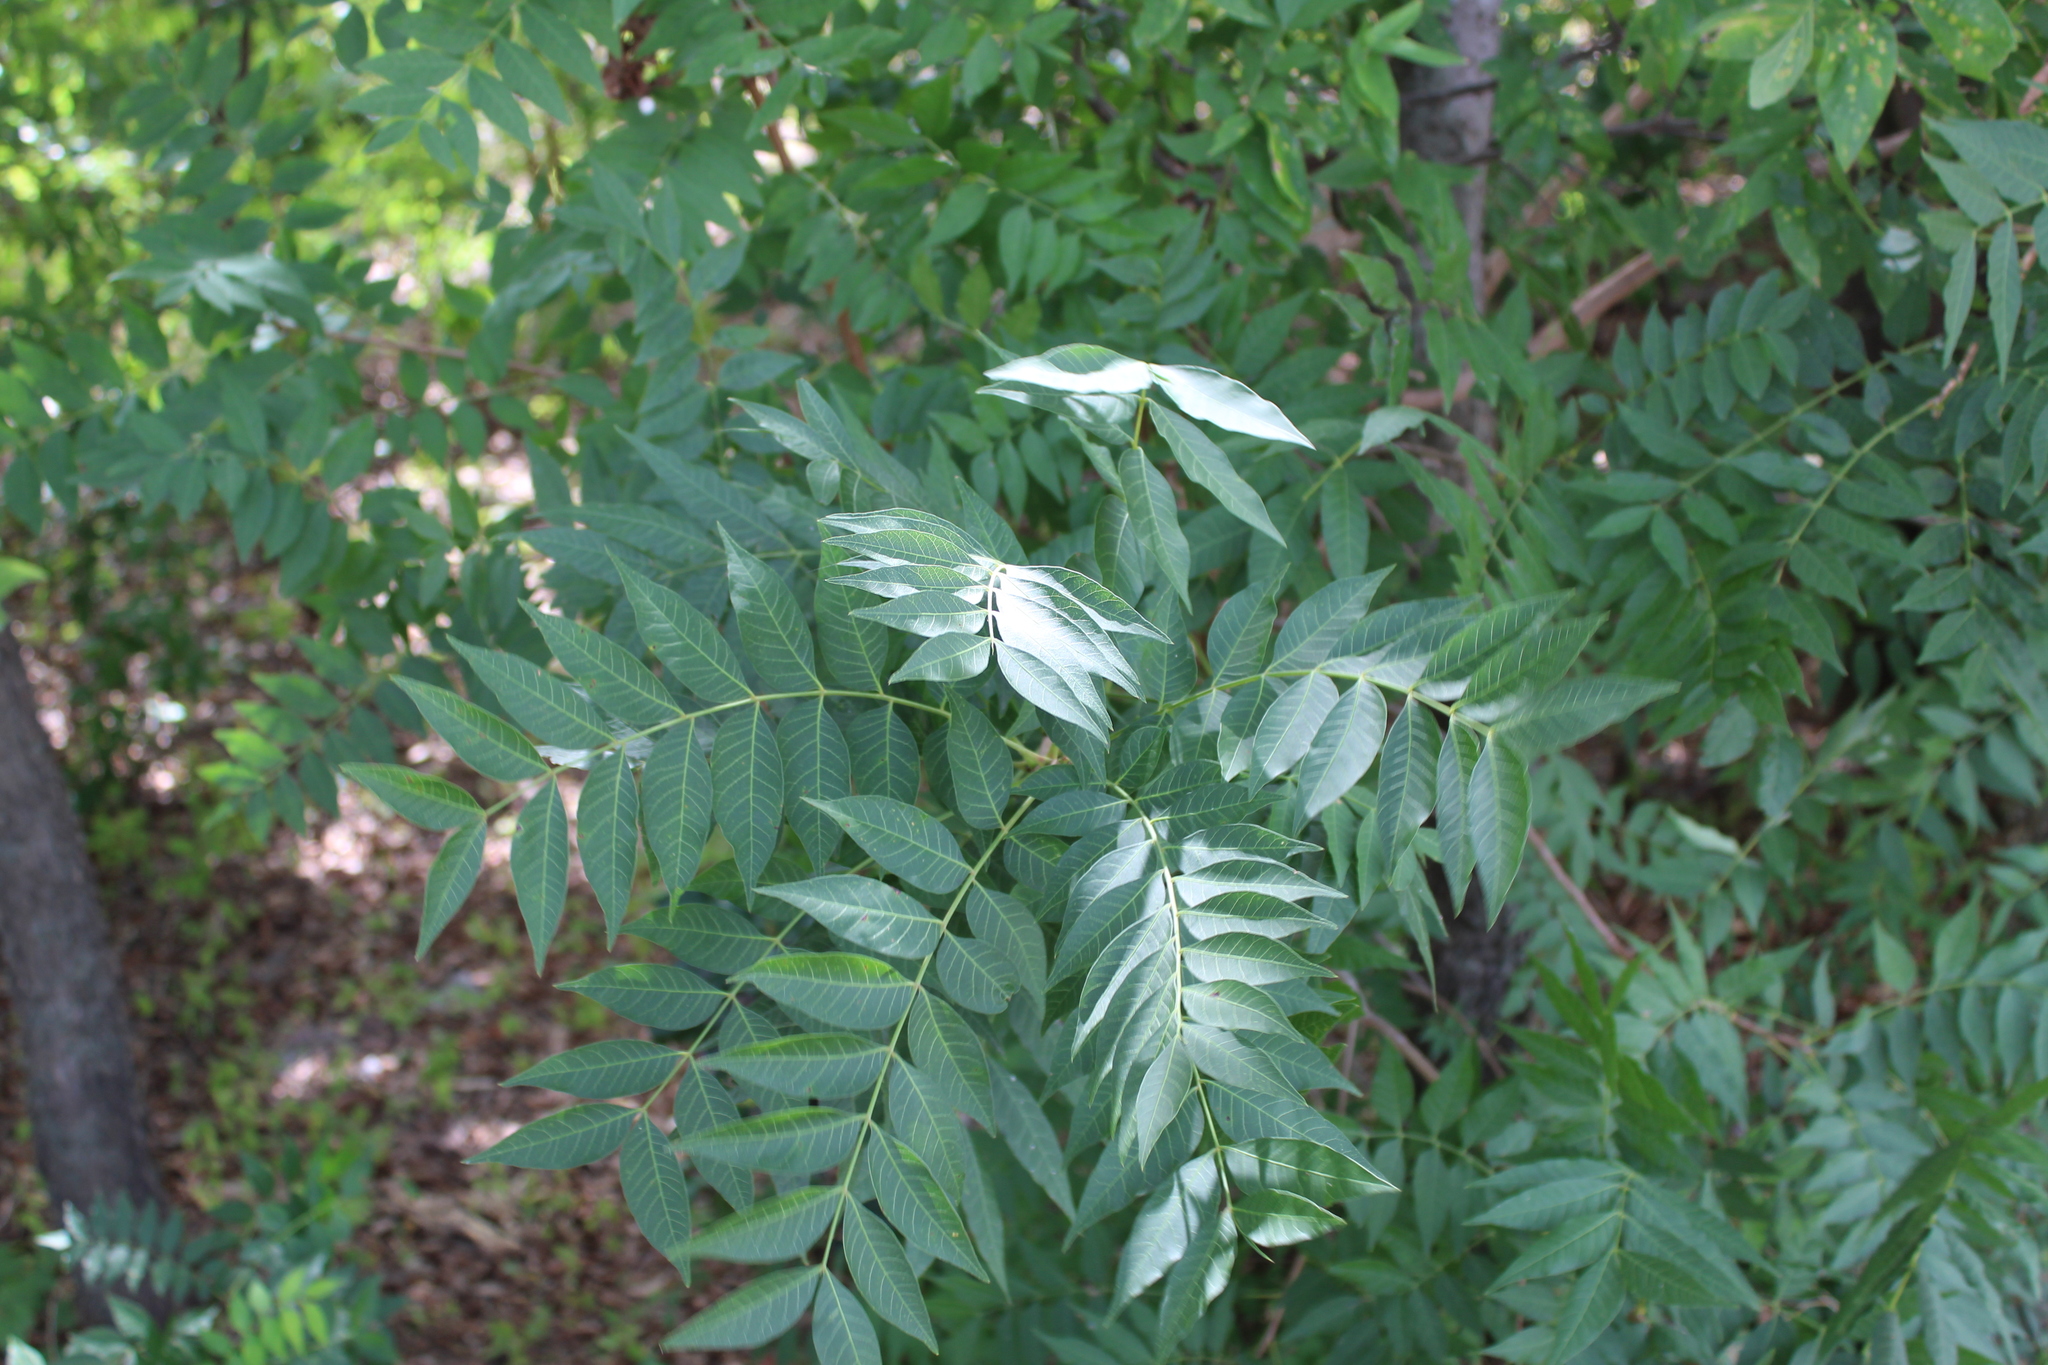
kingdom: Plantae
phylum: Tracheophyta
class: Magnoliopsida
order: Sapindales
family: Anacardiaceae
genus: Pistacia
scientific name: Pistacia chinensis
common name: Chinese pistache
